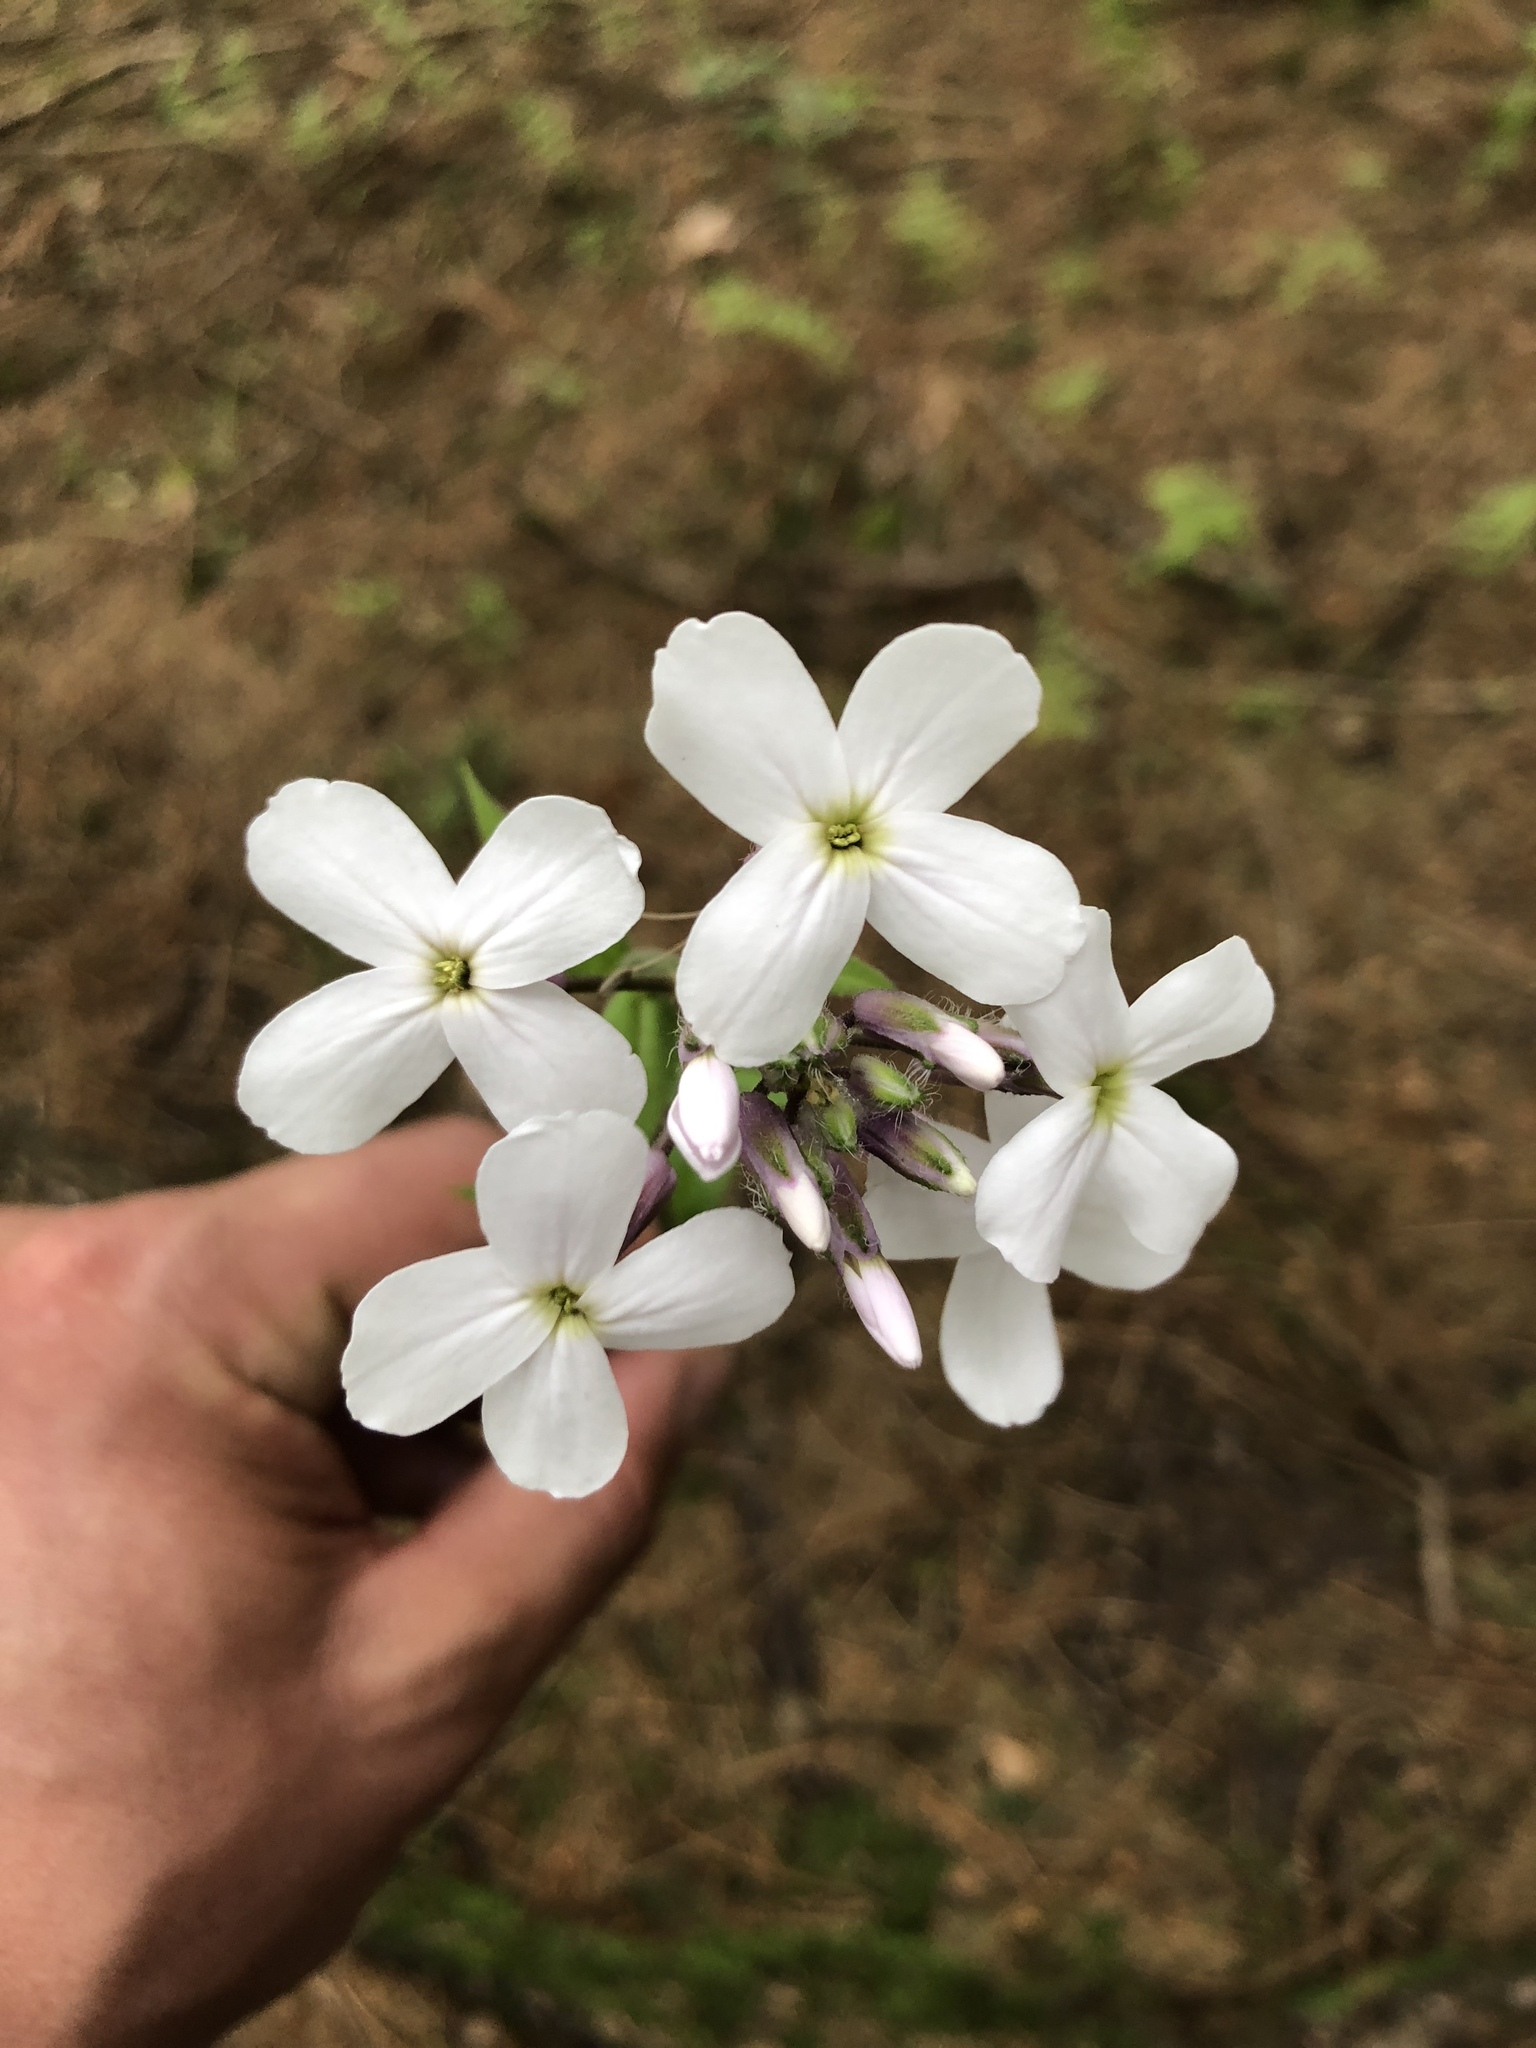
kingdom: Plantae
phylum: Tracheophyta
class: Magnoliopsida
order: Brassicales
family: Brassicaceae
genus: Hesperis
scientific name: Hesperis matronalis
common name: Dame's-violet
